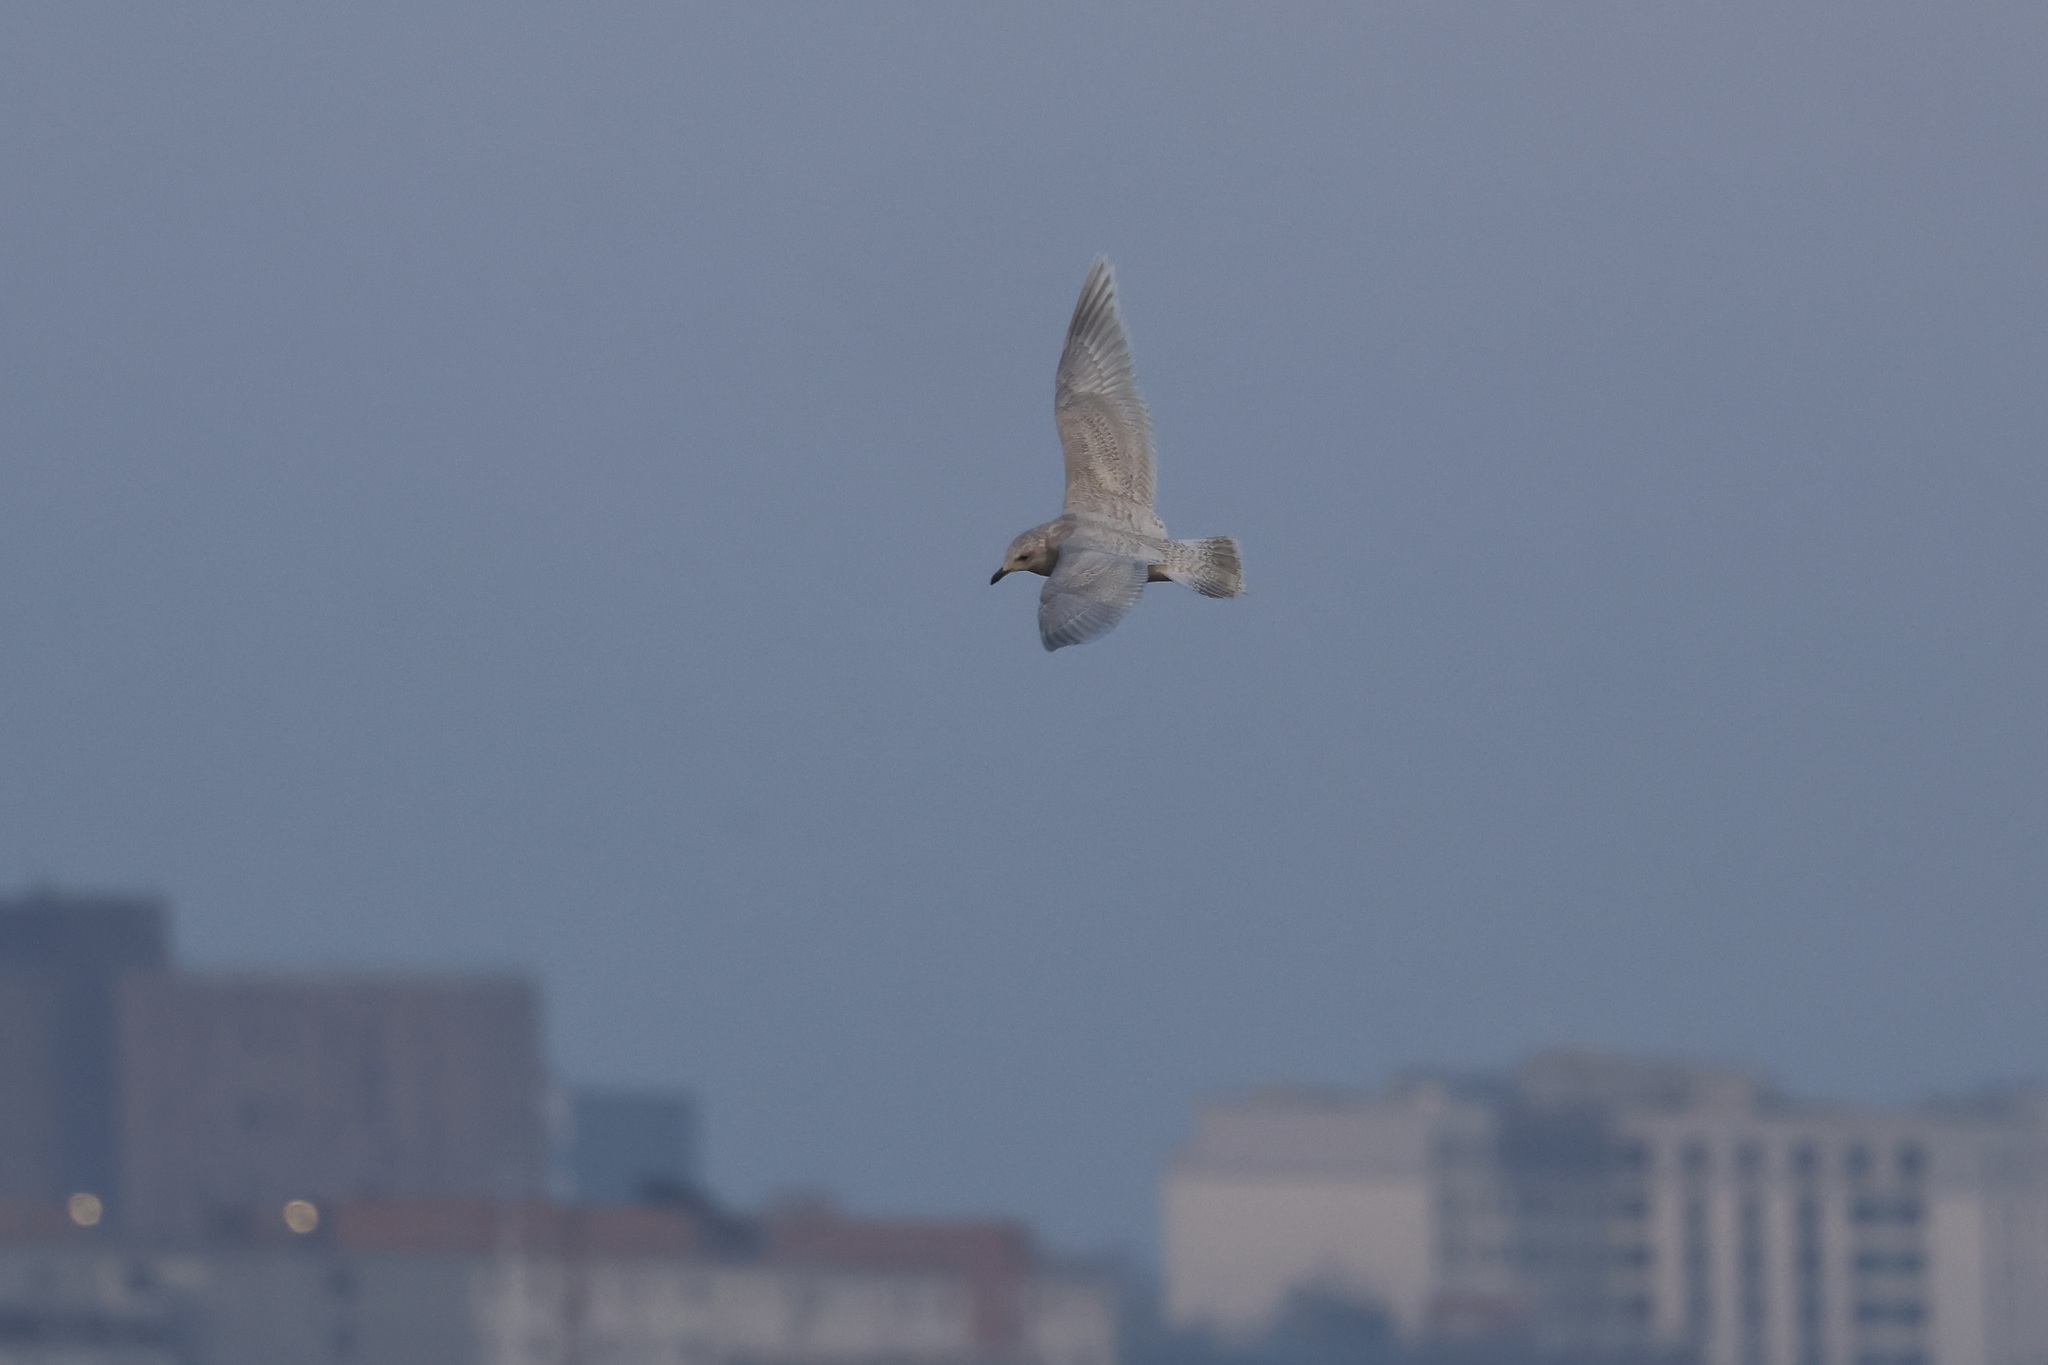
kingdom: Animalia
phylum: Chordata
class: Aves
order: Charadriiformes
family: Laridae
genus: Larus
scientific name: Larus glaucoides
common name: Iceland gull
